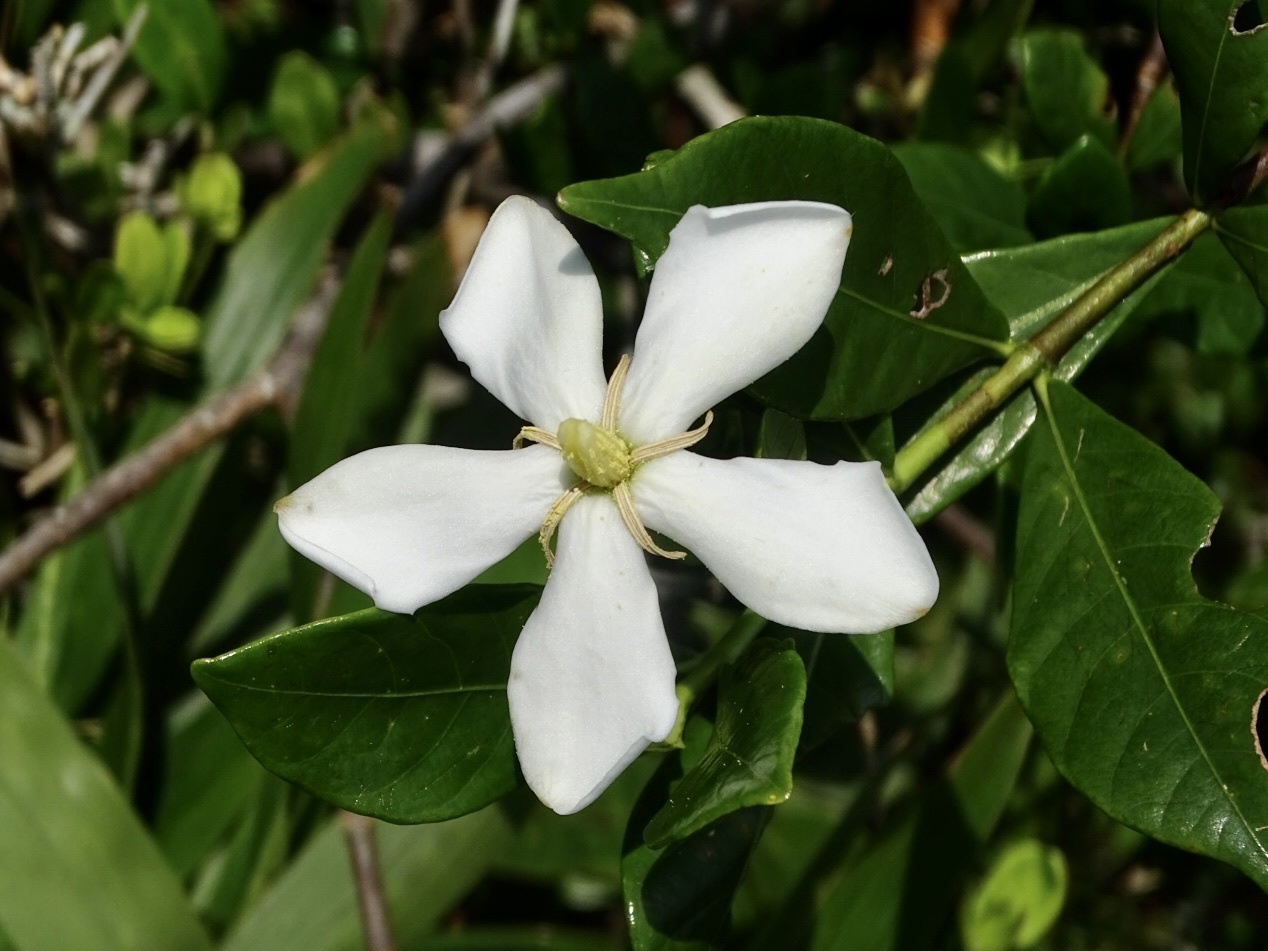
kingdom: Plantae
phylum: Tracheophyta
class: Magnoliopsida
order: Gentianales
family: Rubiaceae
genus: Gardenia
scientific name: Gardenia jasminoides
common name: Cape-jasmine
